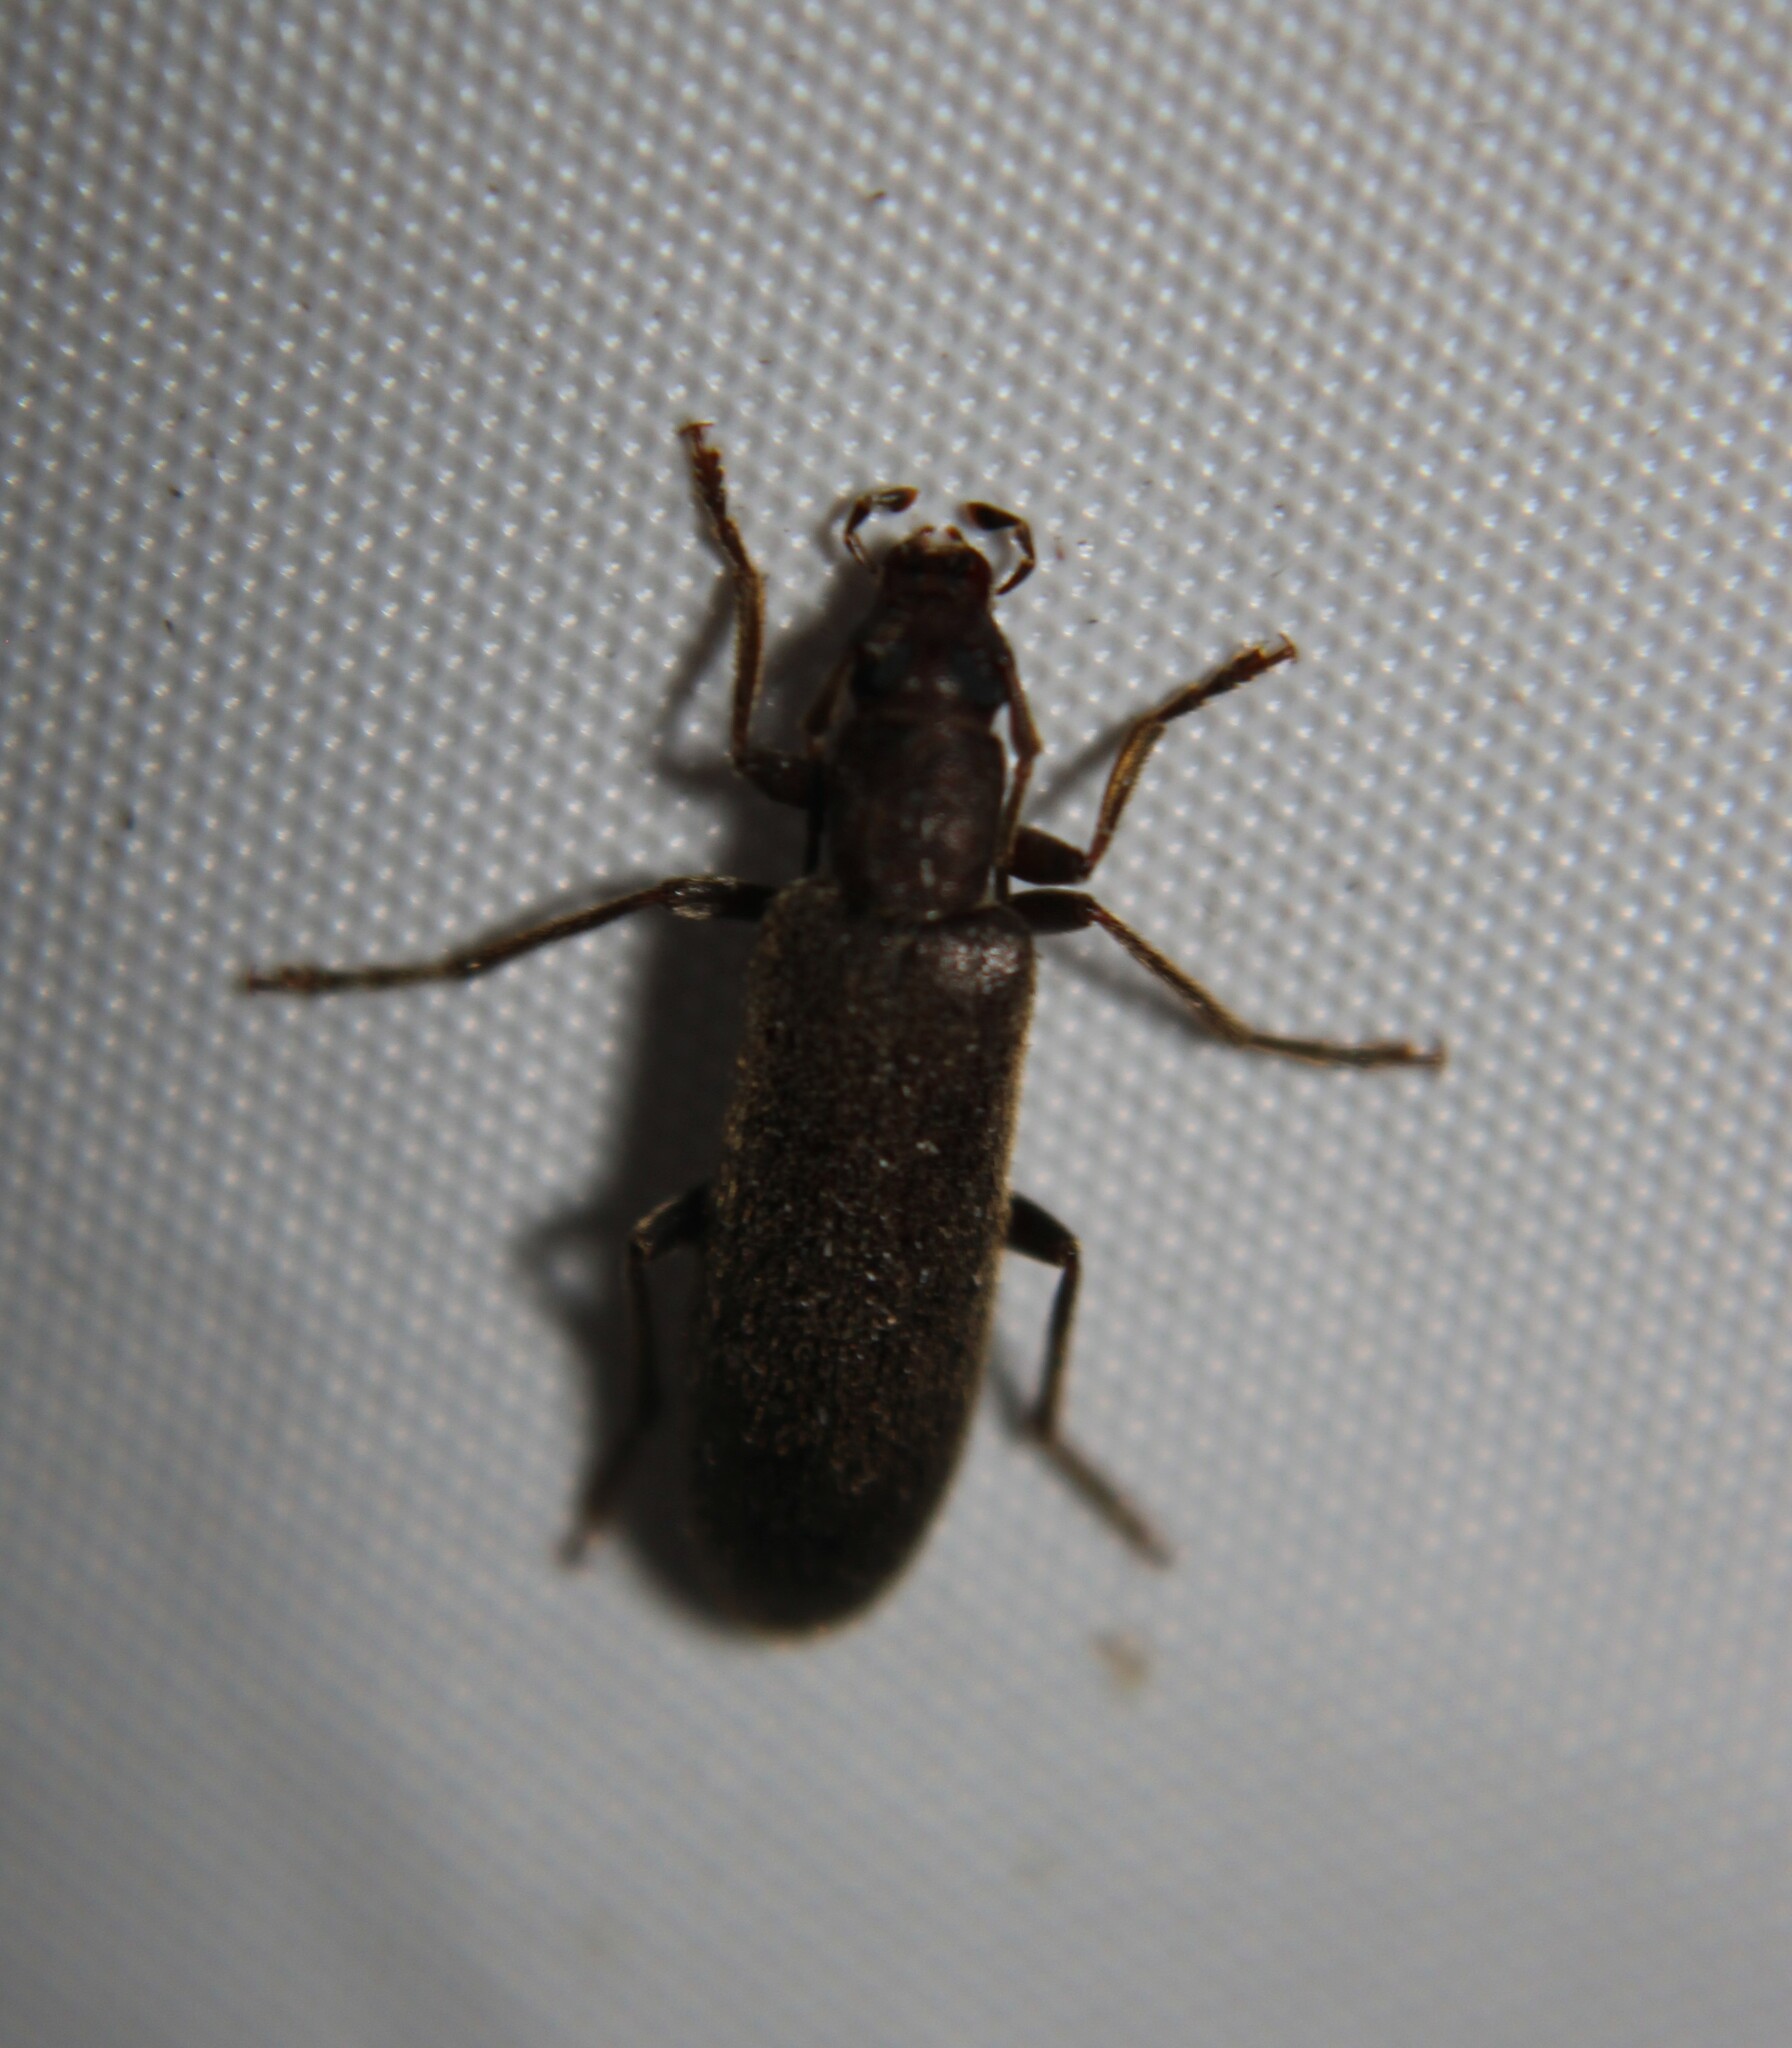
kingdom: Animalia
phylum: Arthropoda
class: Insecta
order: Coleoptera
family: Oedemeridae
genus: Sparedrus
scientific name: Sparedrus aspersus
